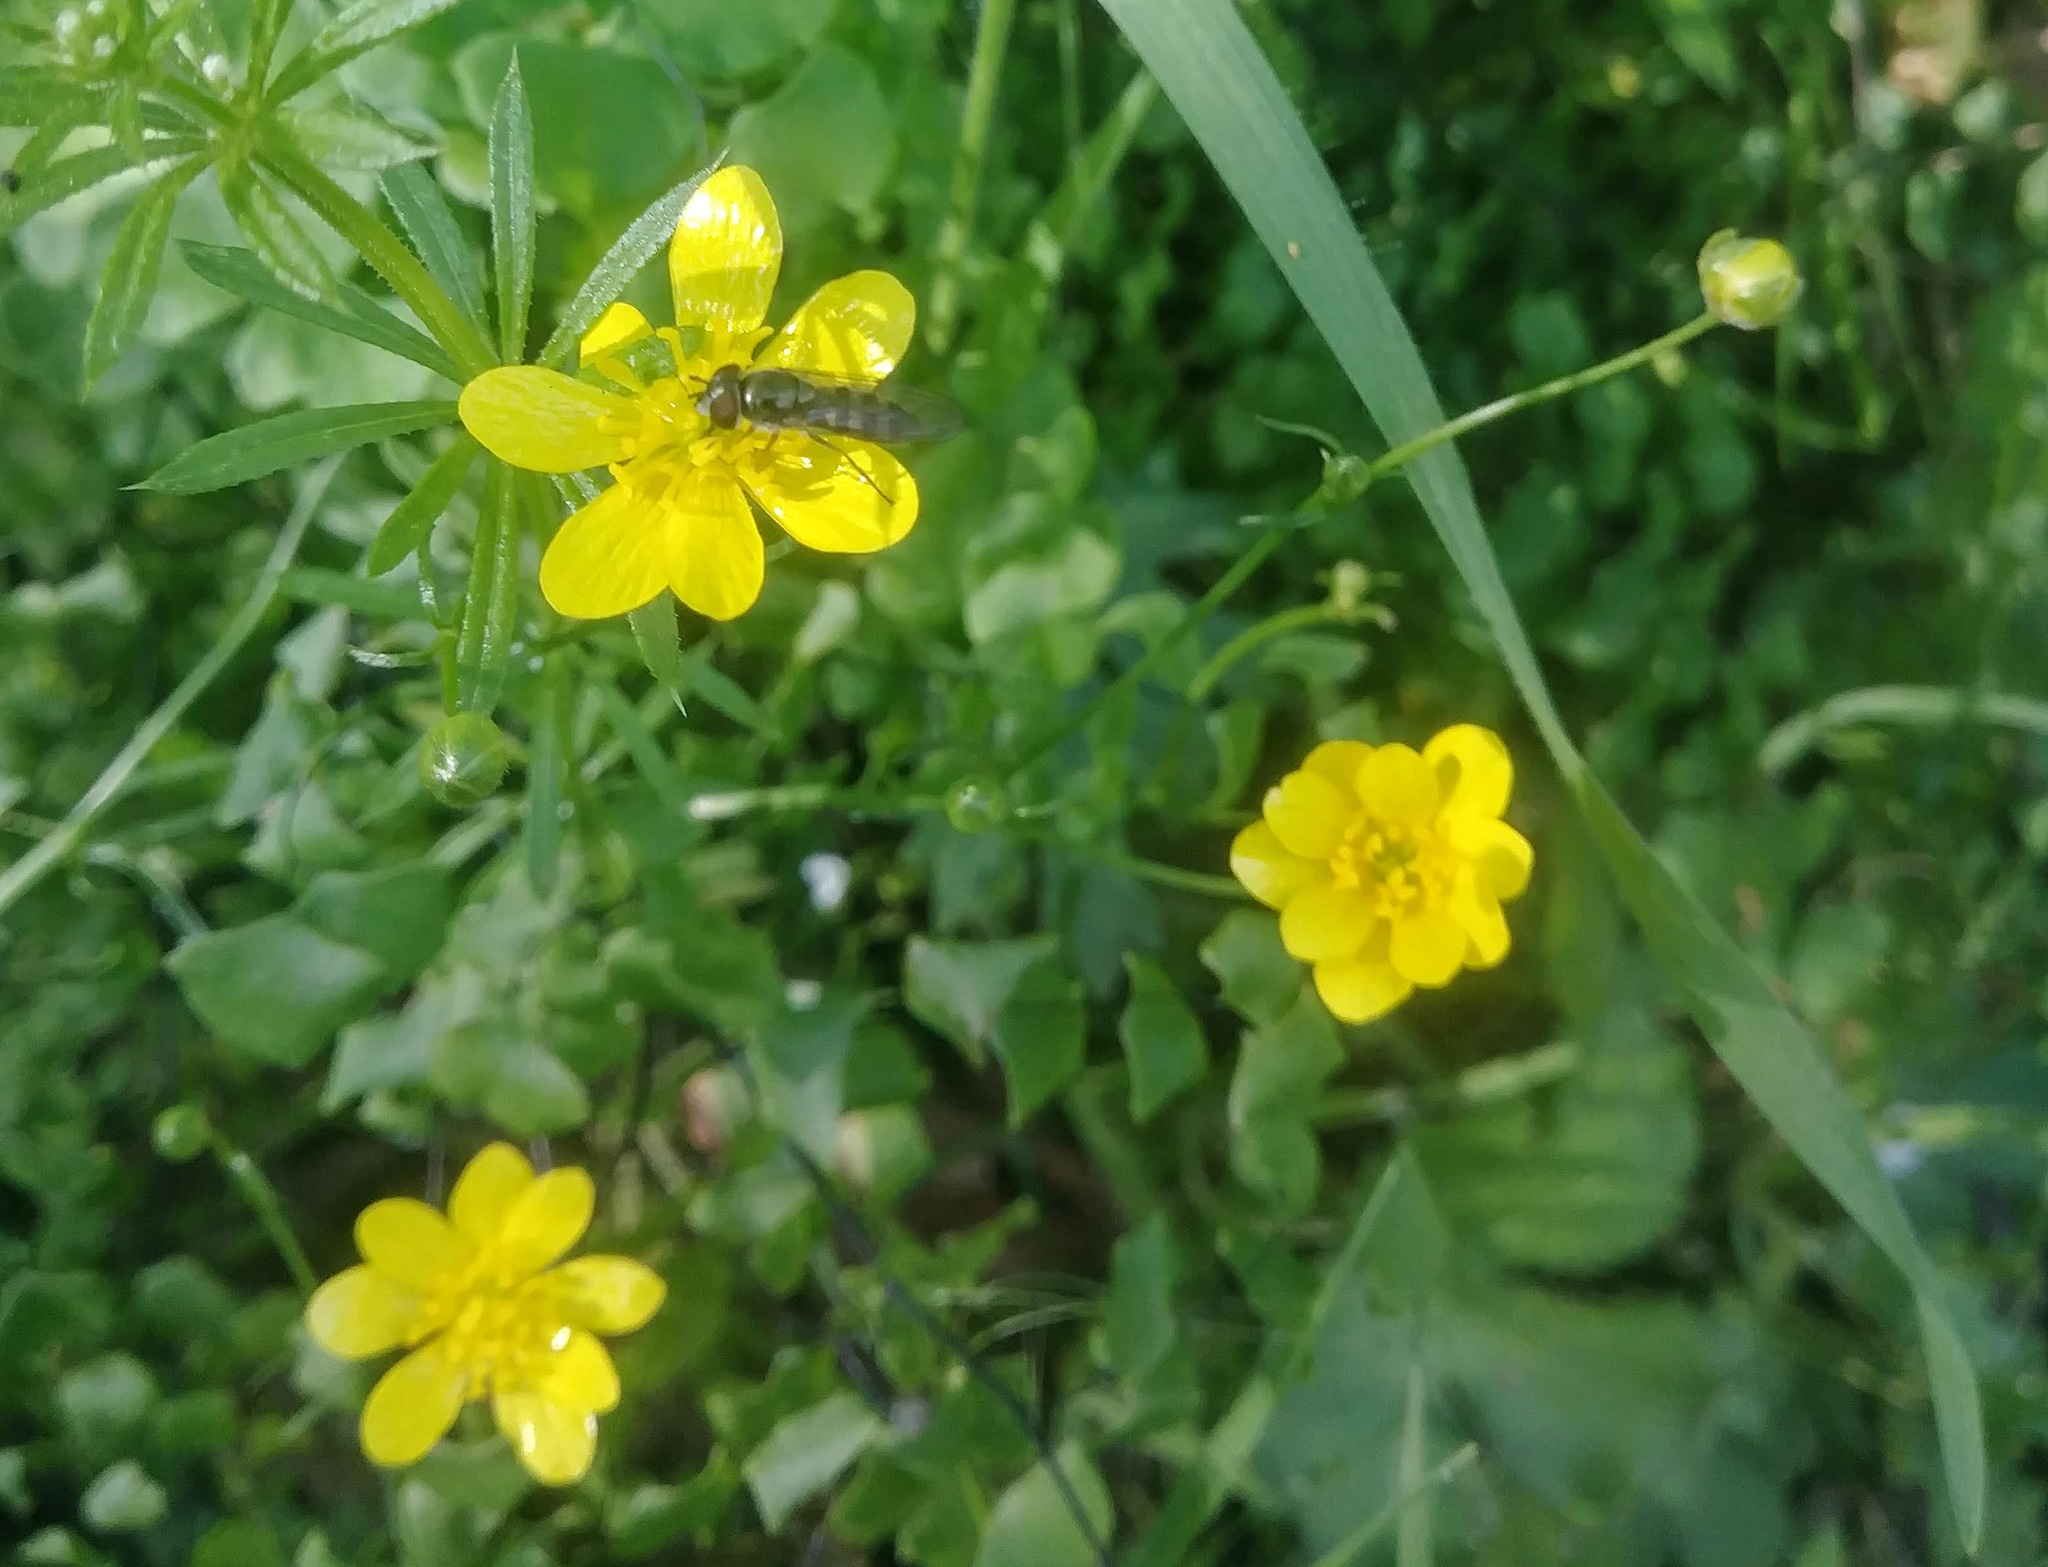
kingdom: Plantae
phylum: Tracheophyta
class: Magnoliopsida
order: Ranunculales
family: Ranunculaceae
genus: Ranunculus
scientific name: Ranunculus californicus
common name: California buttercup
